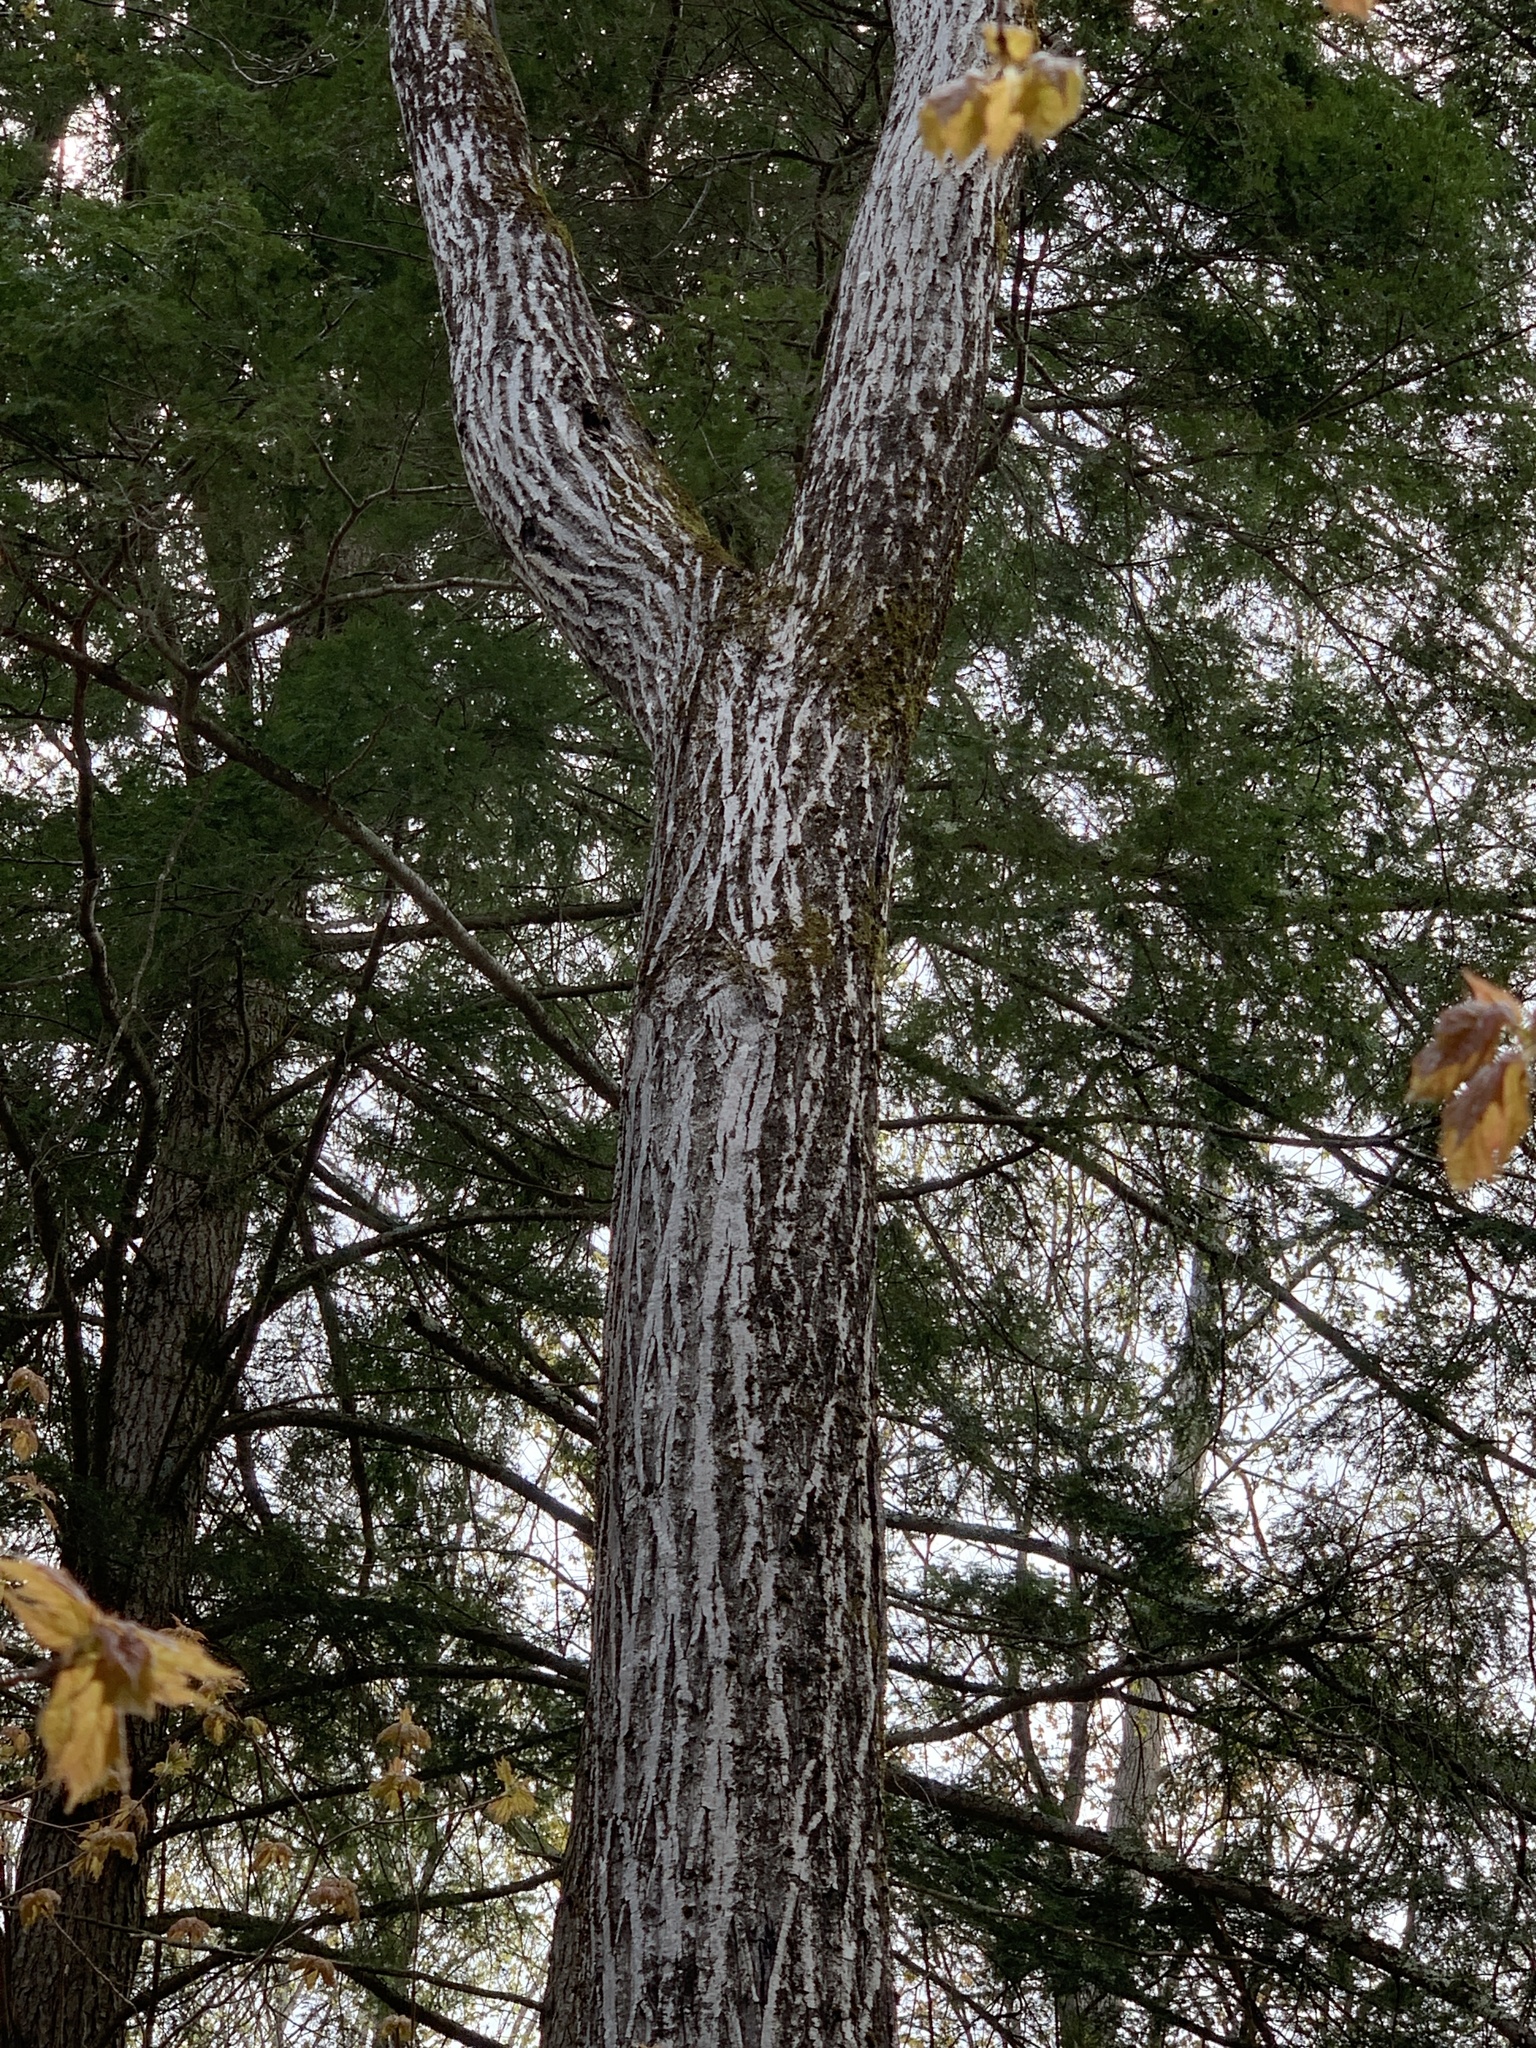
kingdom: Plantae
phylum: Tracheophyta
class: Magnoliopsida
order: Fagales
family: Juglandaceae
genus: Juglans
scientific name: Juglans cinerea
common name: Butternut
